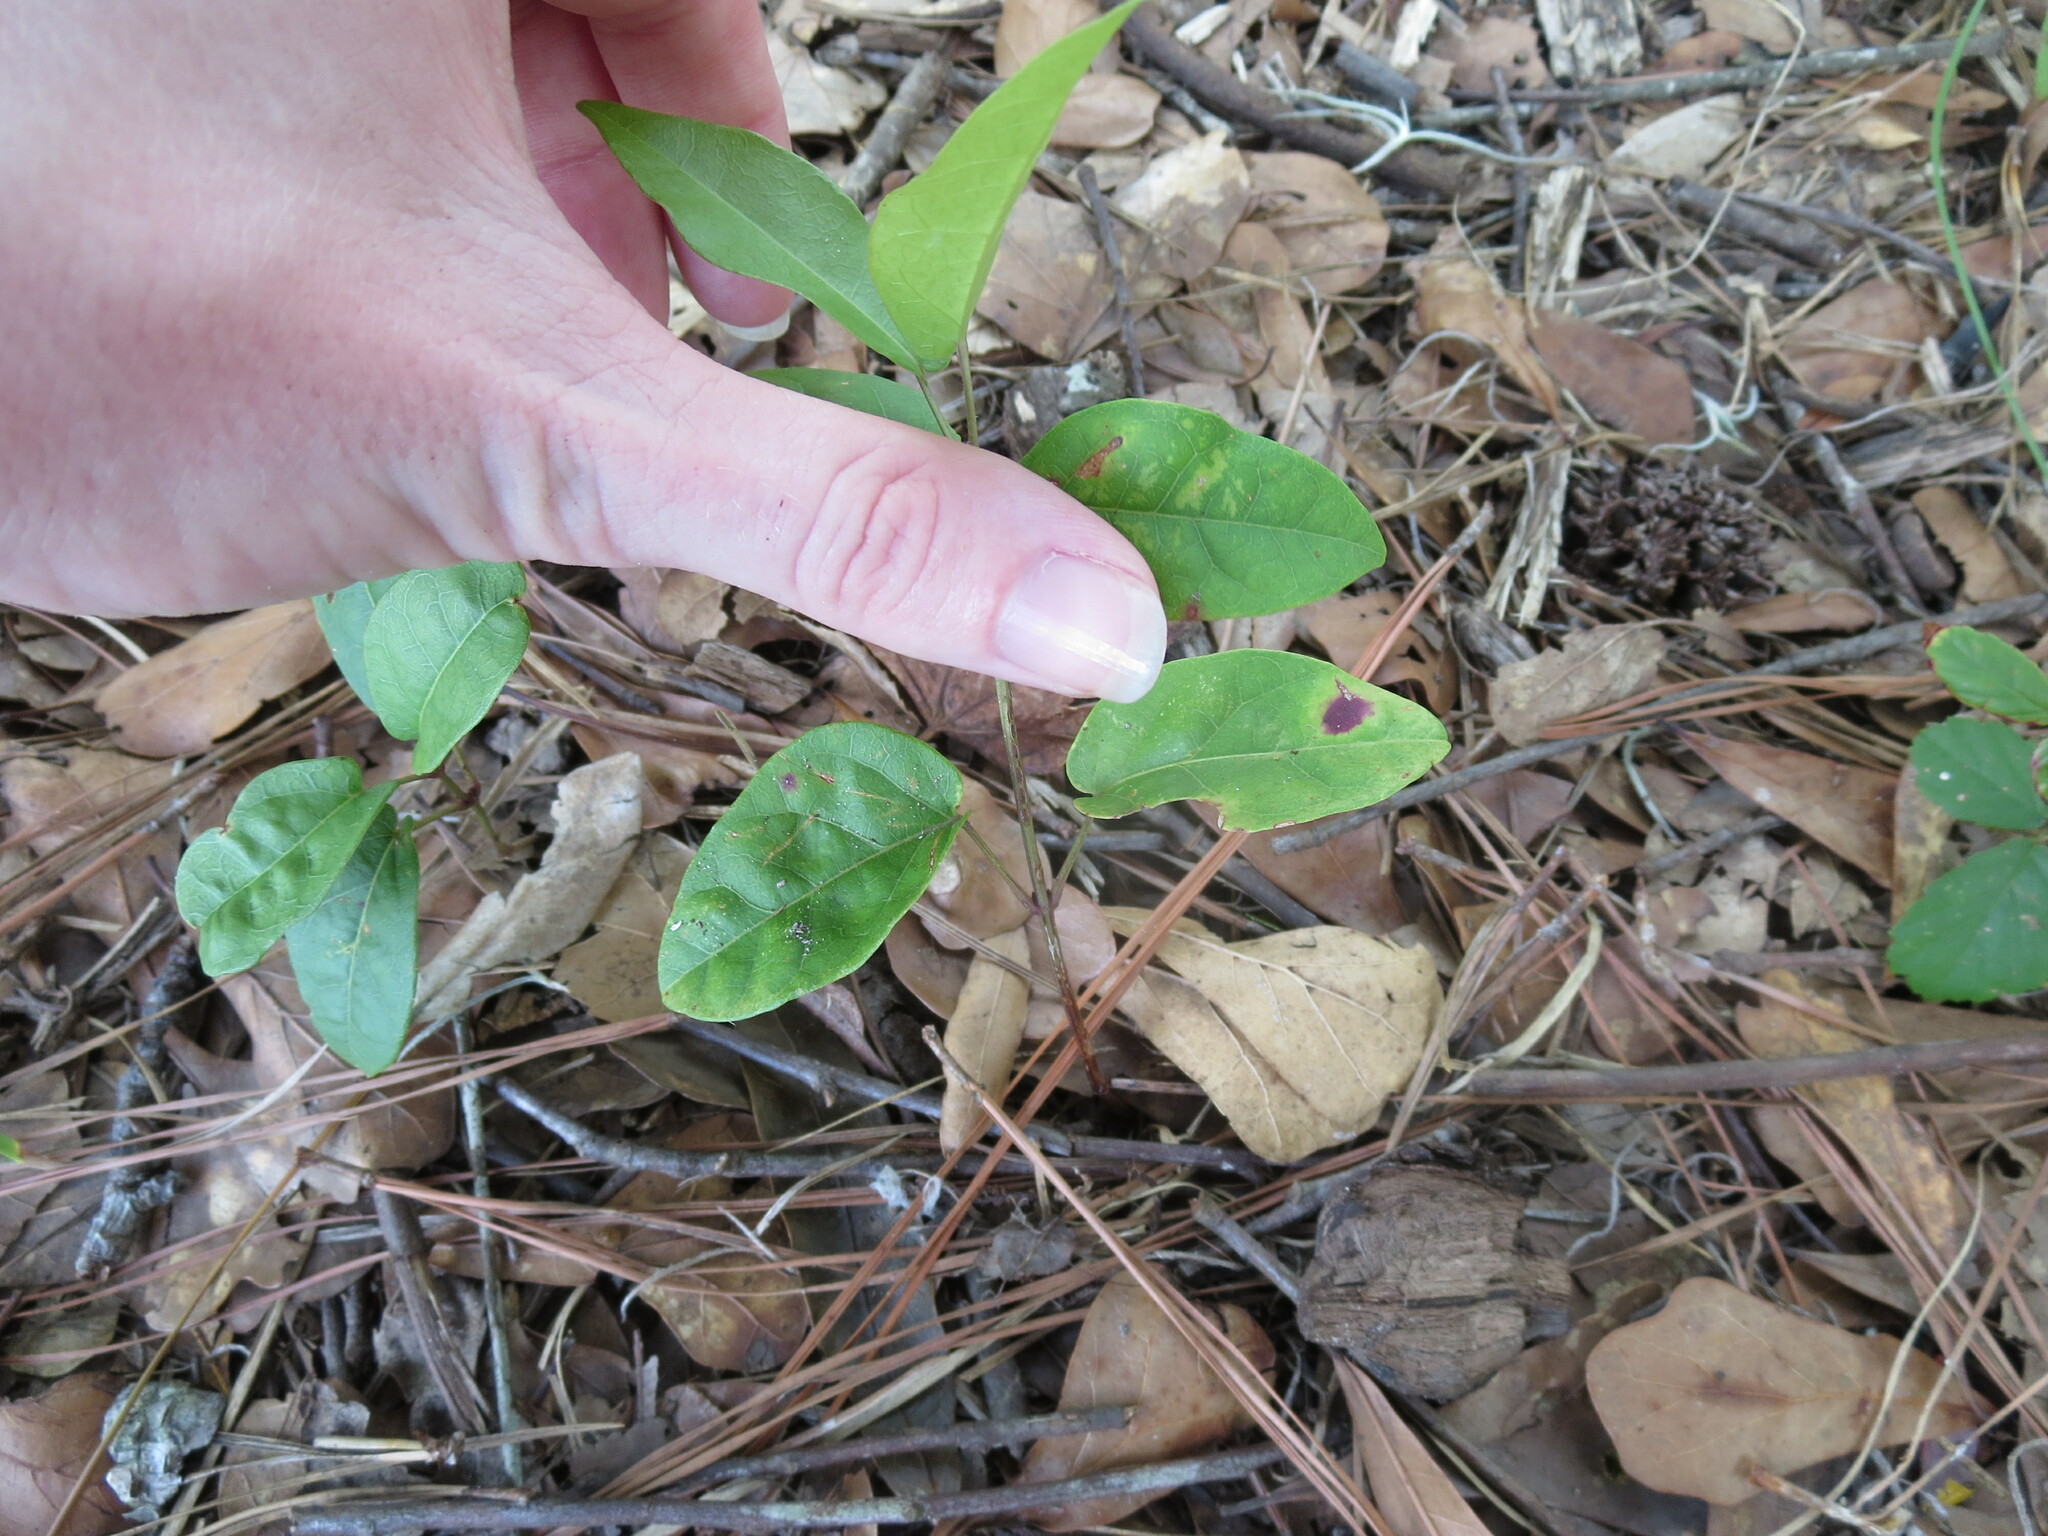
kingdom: Plantae
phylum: Tracheophyta
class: Magnoliopsida
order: Lamiales
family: Bignoniaceae
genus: Bignonia
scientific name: Bignonia capreolata
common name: Crossvine
